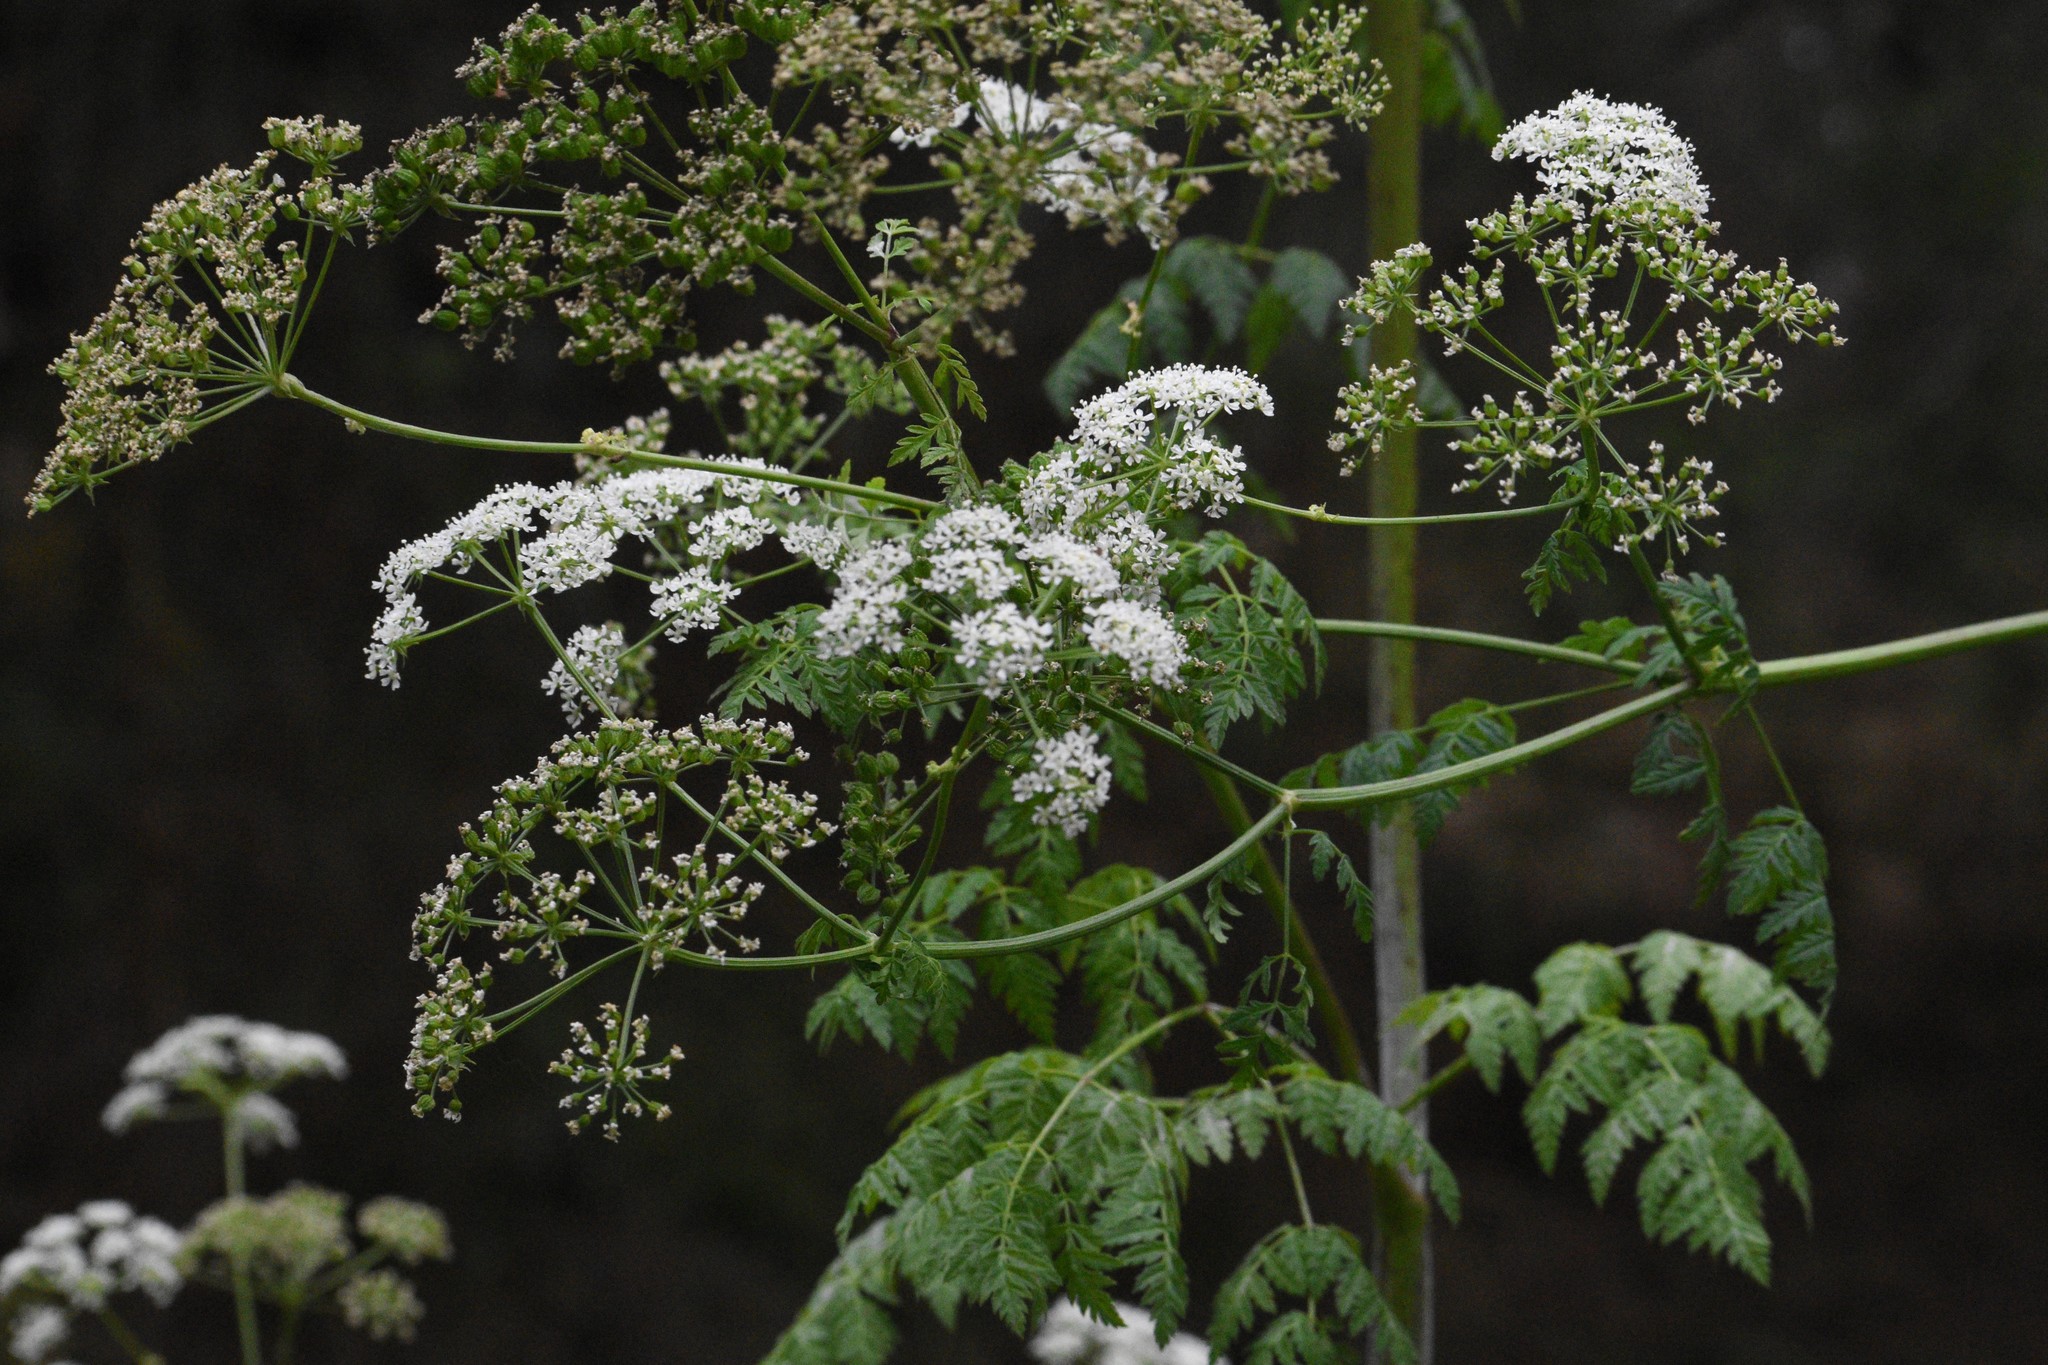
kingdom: Plantae
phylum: Tracheophyta
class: Magnoliopsida
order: Apiales
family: Apiaceae
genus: Conium
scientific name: Conium maculatum
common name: Hemlock
